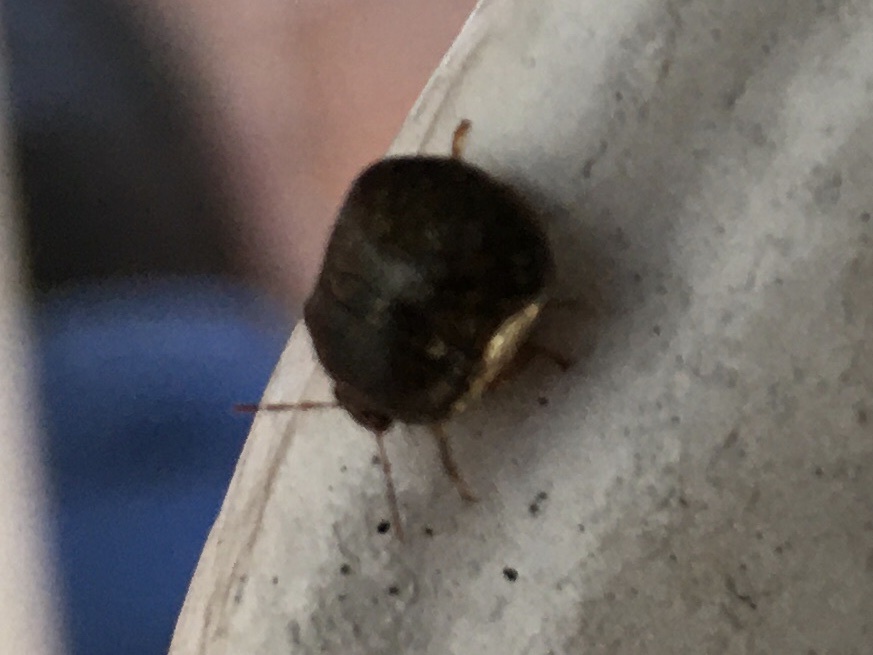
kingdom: Animalia
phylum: Arthropoda
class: Insecta
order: Hemiptera
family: Plataspidae
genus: Megacopta
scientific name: Megacopta cribraria
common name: Bean plataspid
